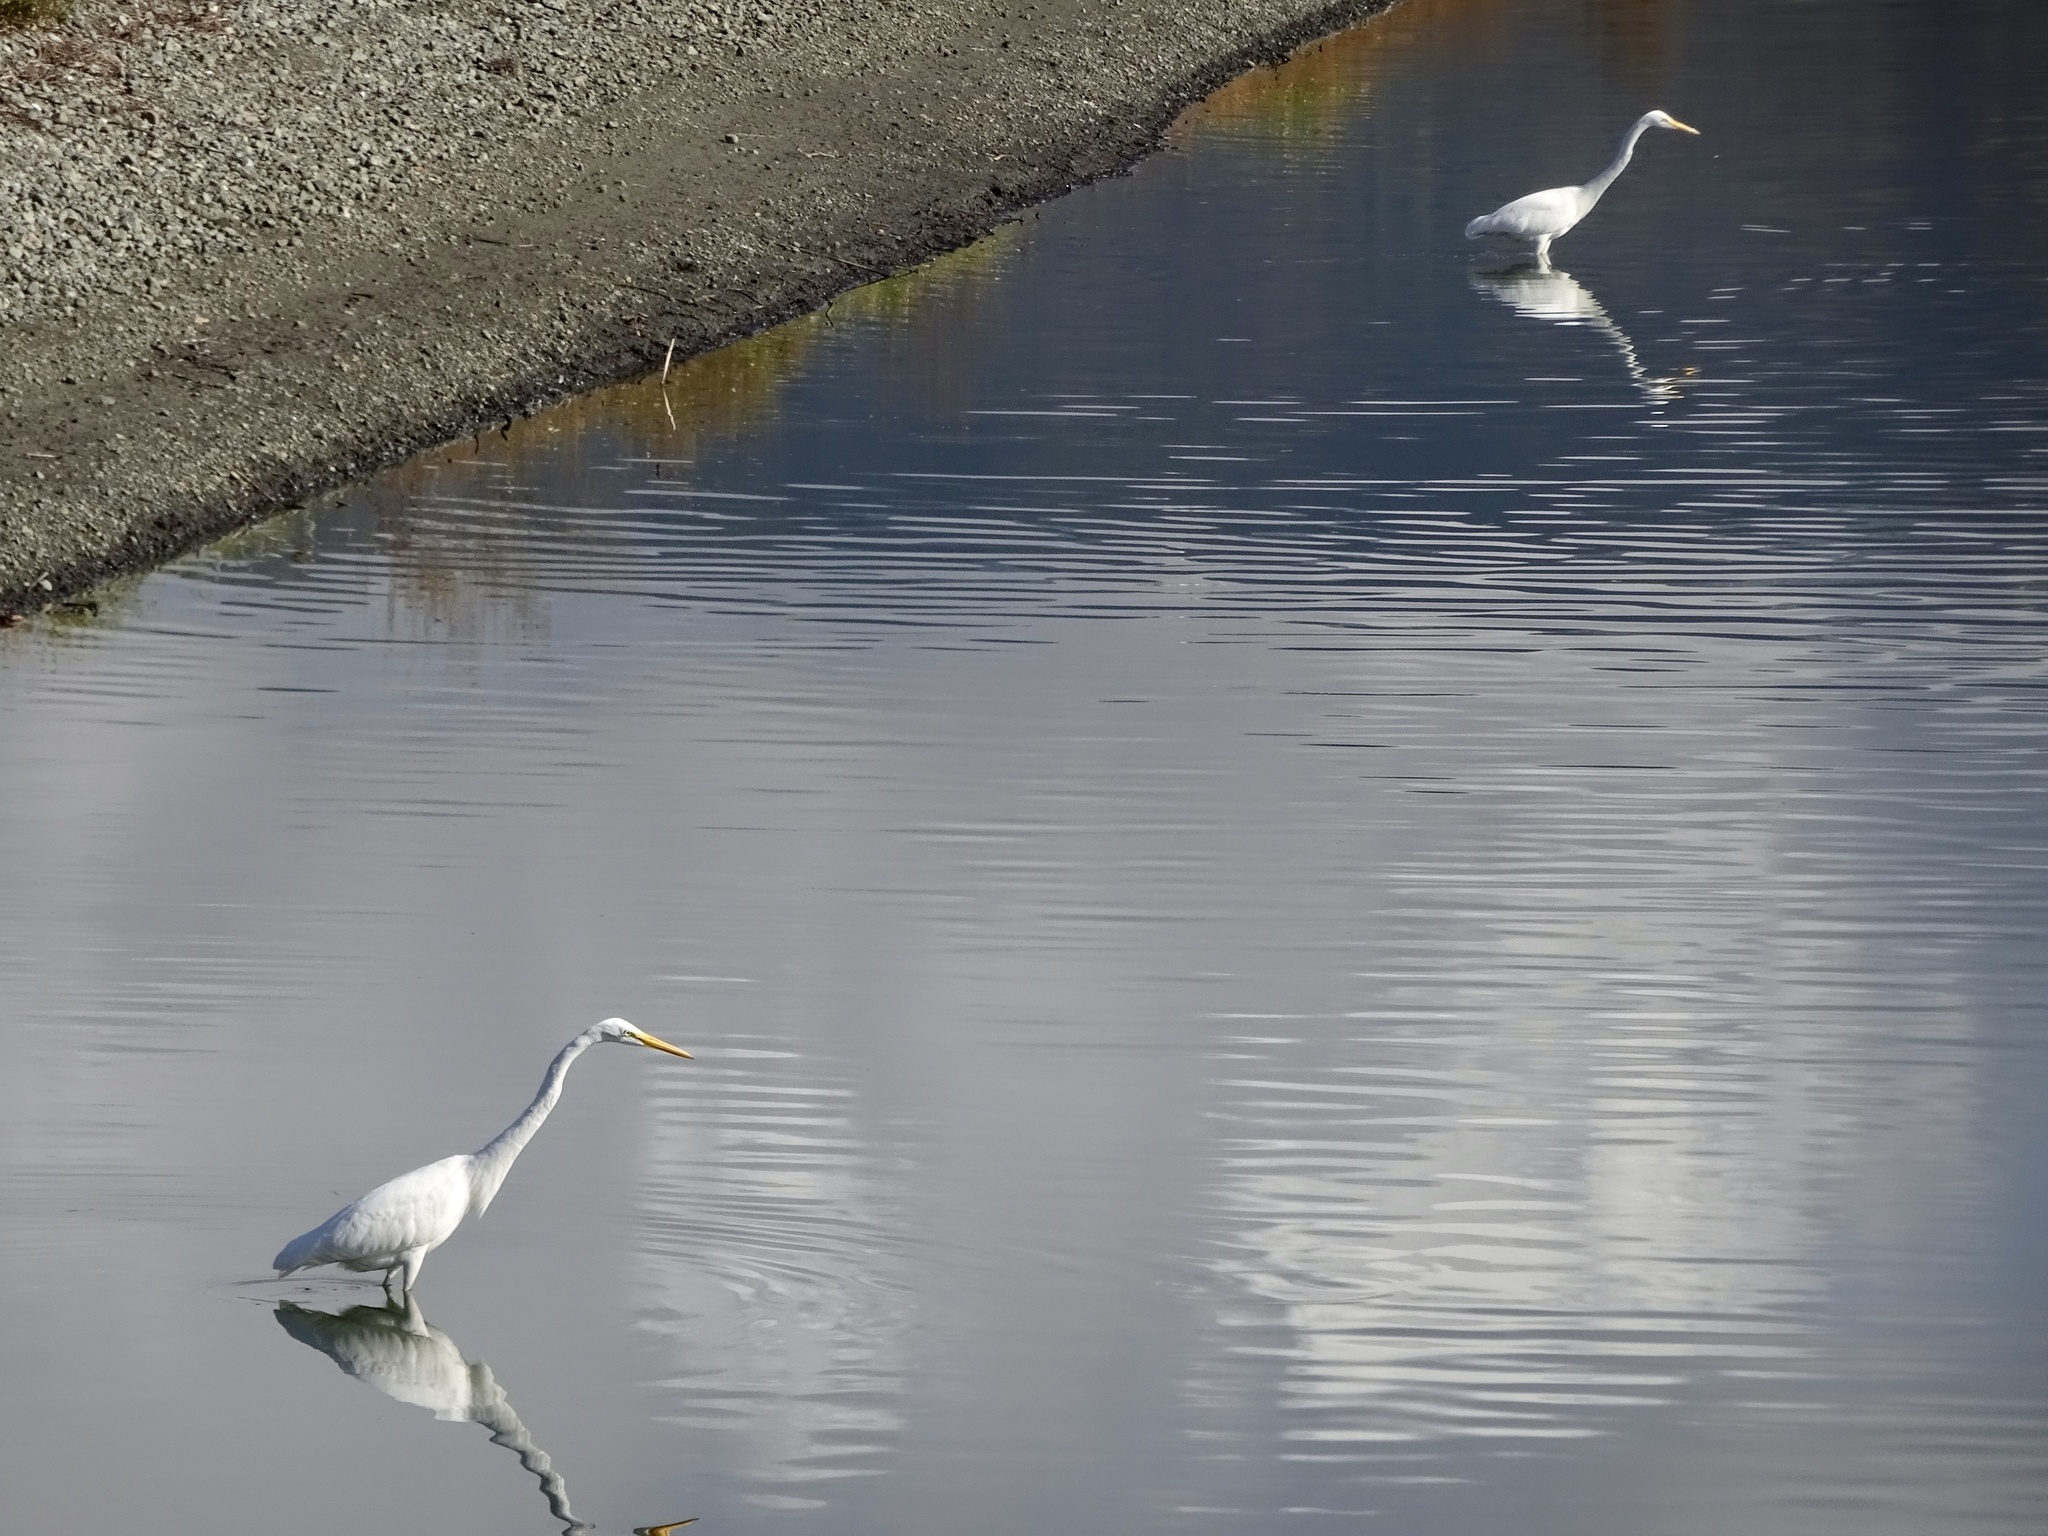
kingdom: Animalia
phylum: Chordata
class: Aves
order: Pelecaniformes
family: Ardeidae
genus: Ardea
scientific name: Ardea alba
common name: Great egret
